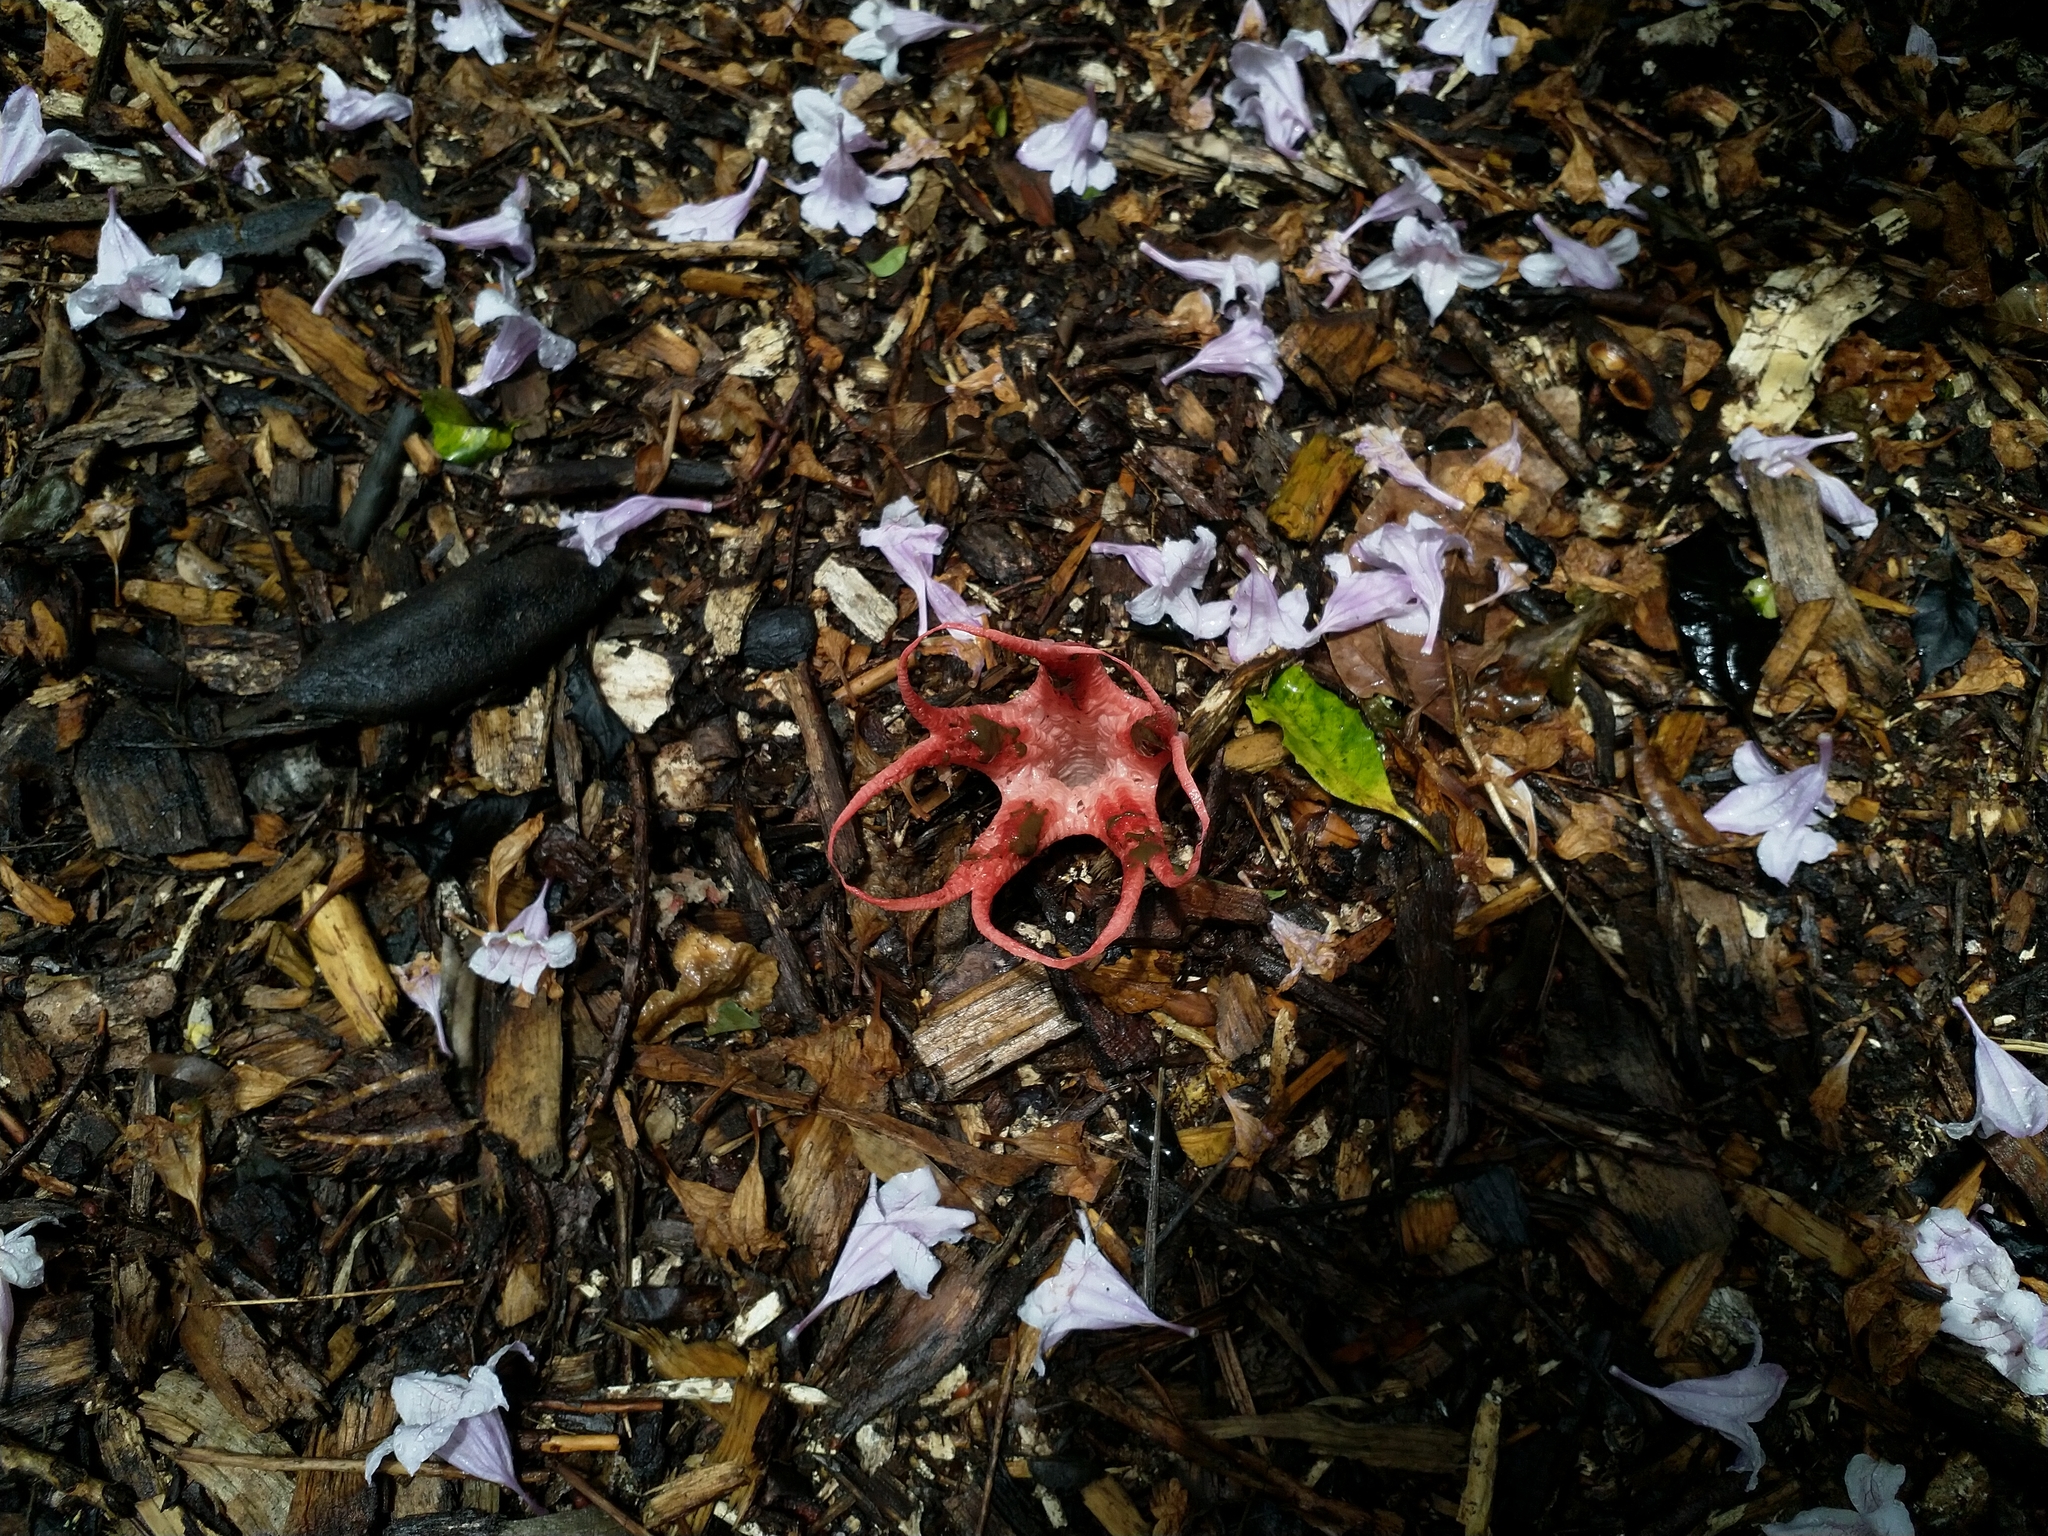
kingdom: Fungi
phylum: Basidiomycota
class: Agaricomycetes
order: Phallales
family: Phallaceae
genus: Clathrus
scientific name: Clathrus archeri
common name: Devil's fingers
